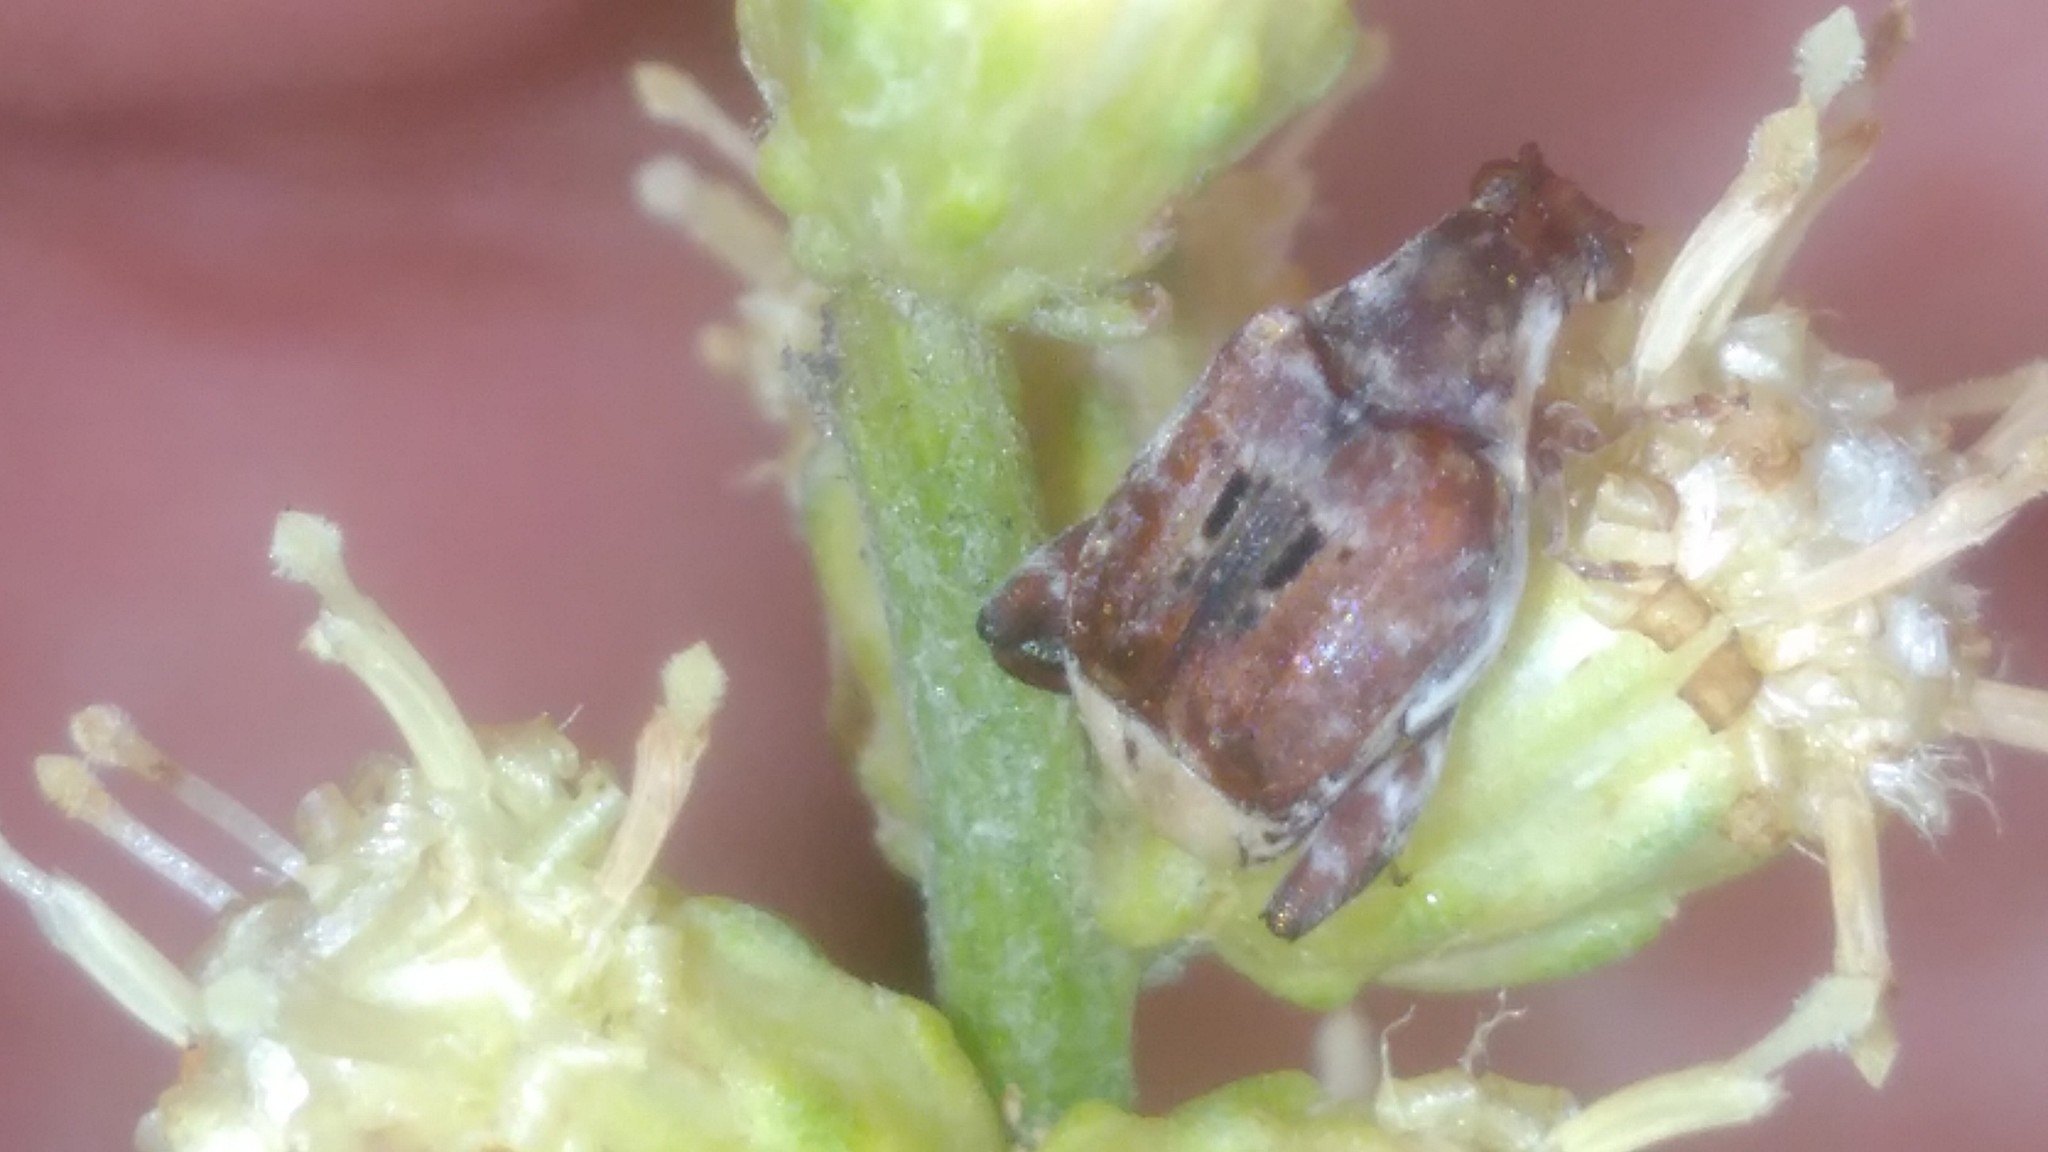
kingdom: Animalia
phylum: Arthropoda
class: Insecta
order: Coleoptera
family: Chrysomelidae
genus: Penthobruchus
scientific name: Penthobruchus
